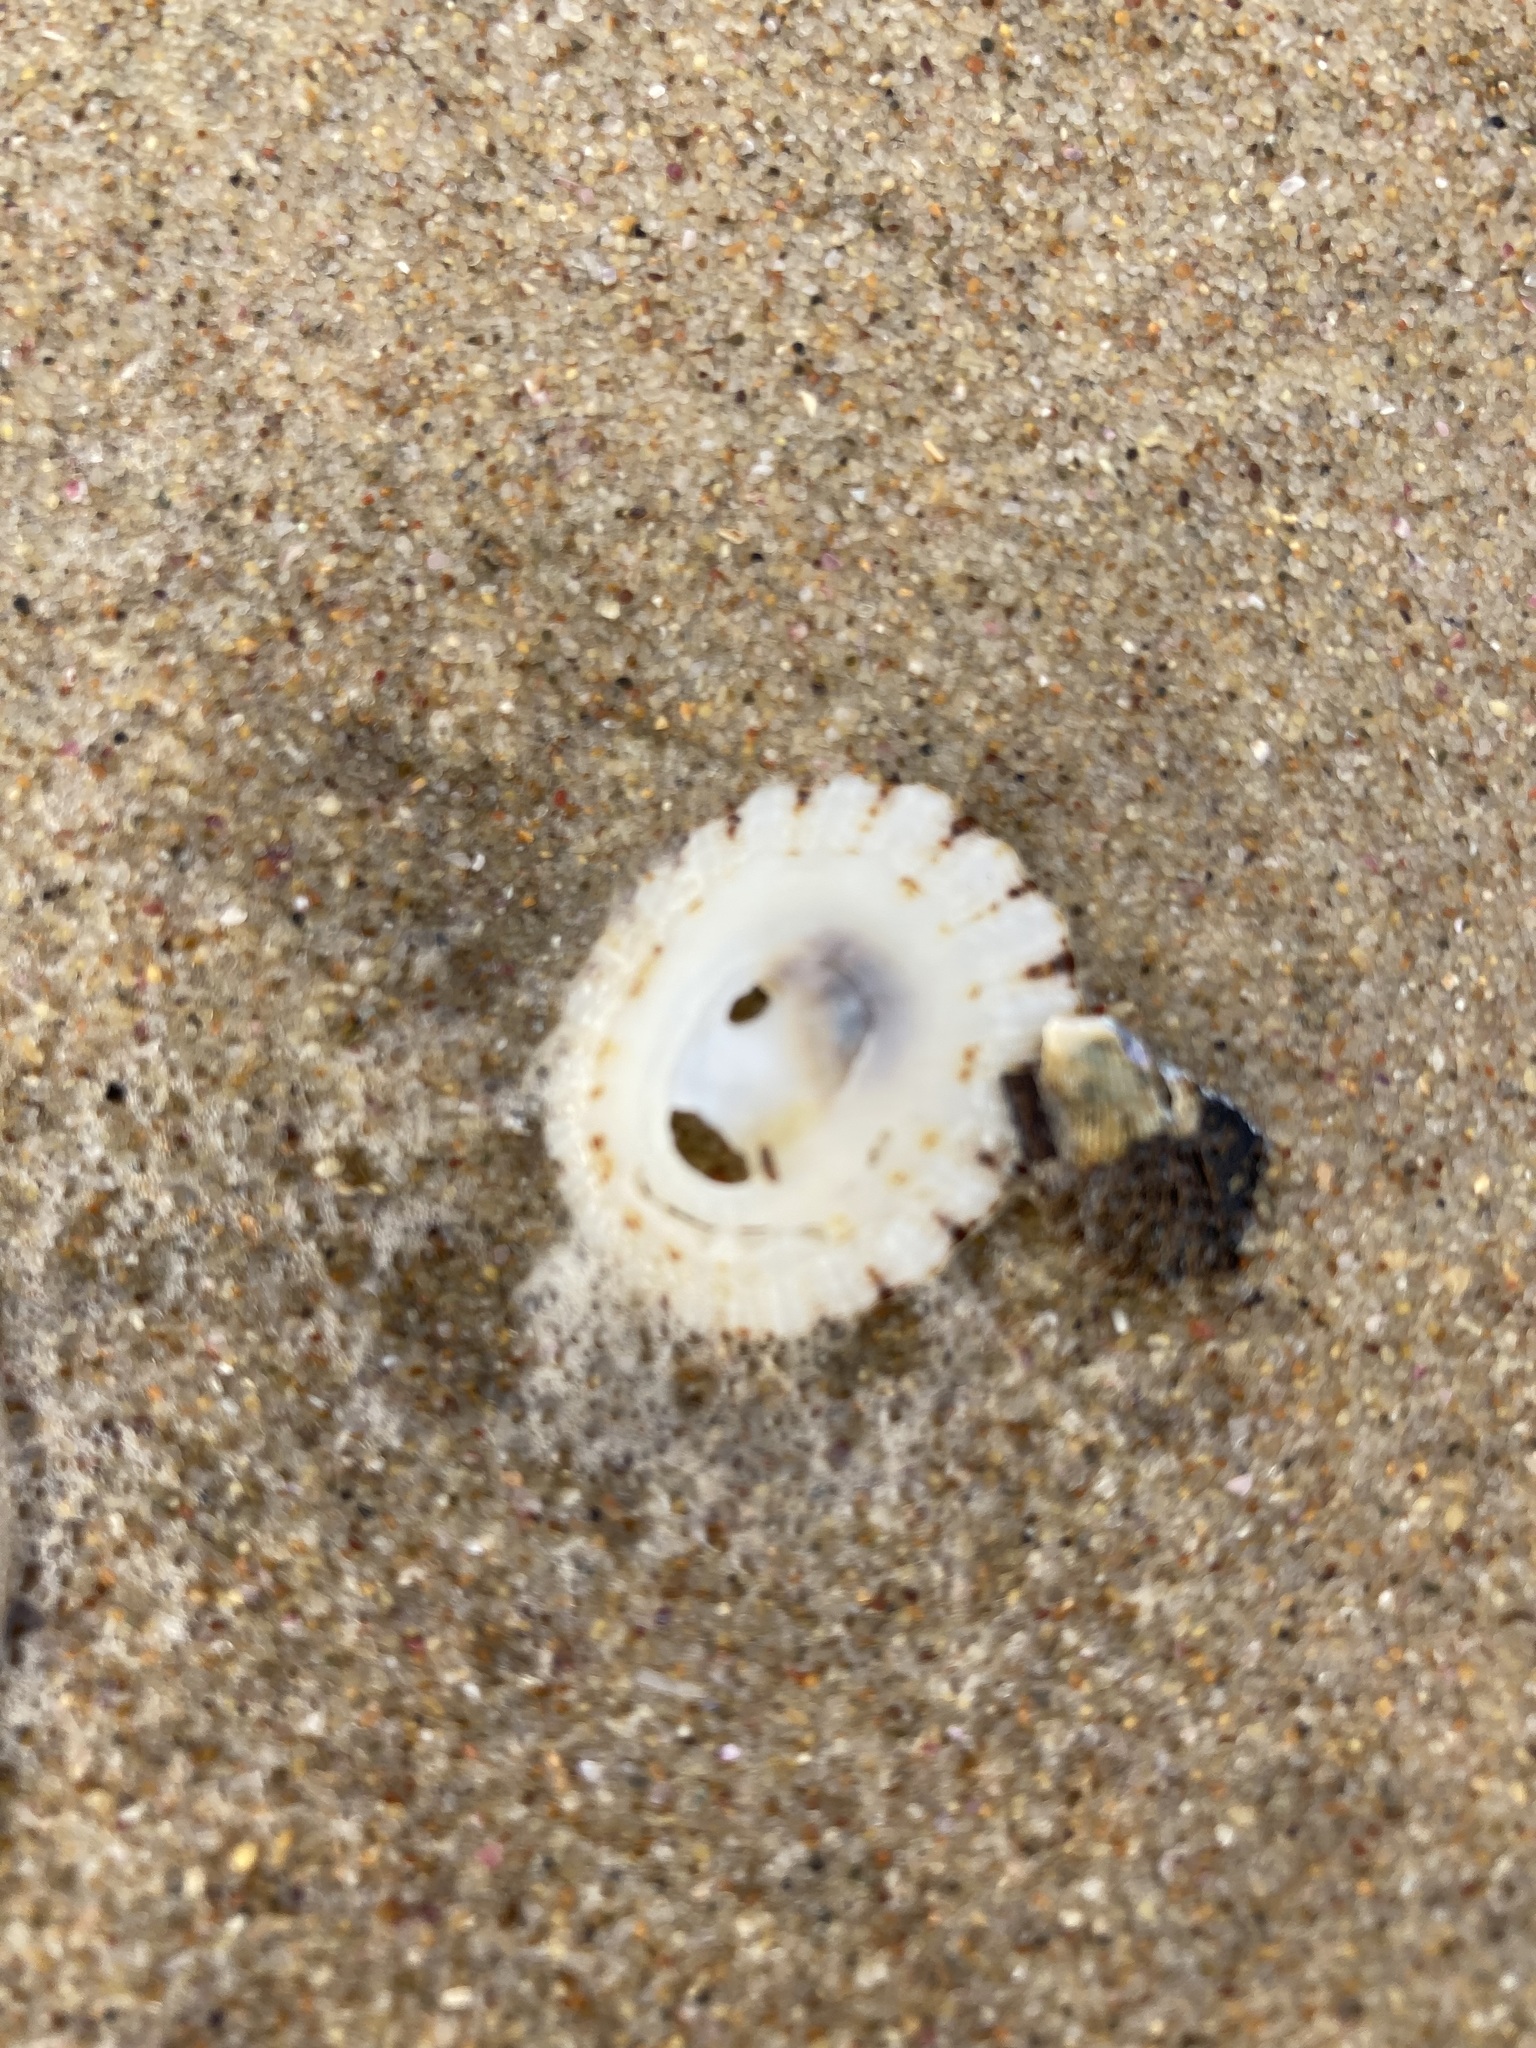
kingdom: Animalia
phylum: Mollusca
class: Gastropoda
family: Patellidae
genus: Scutellastra
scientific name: Scutellastra peronii
